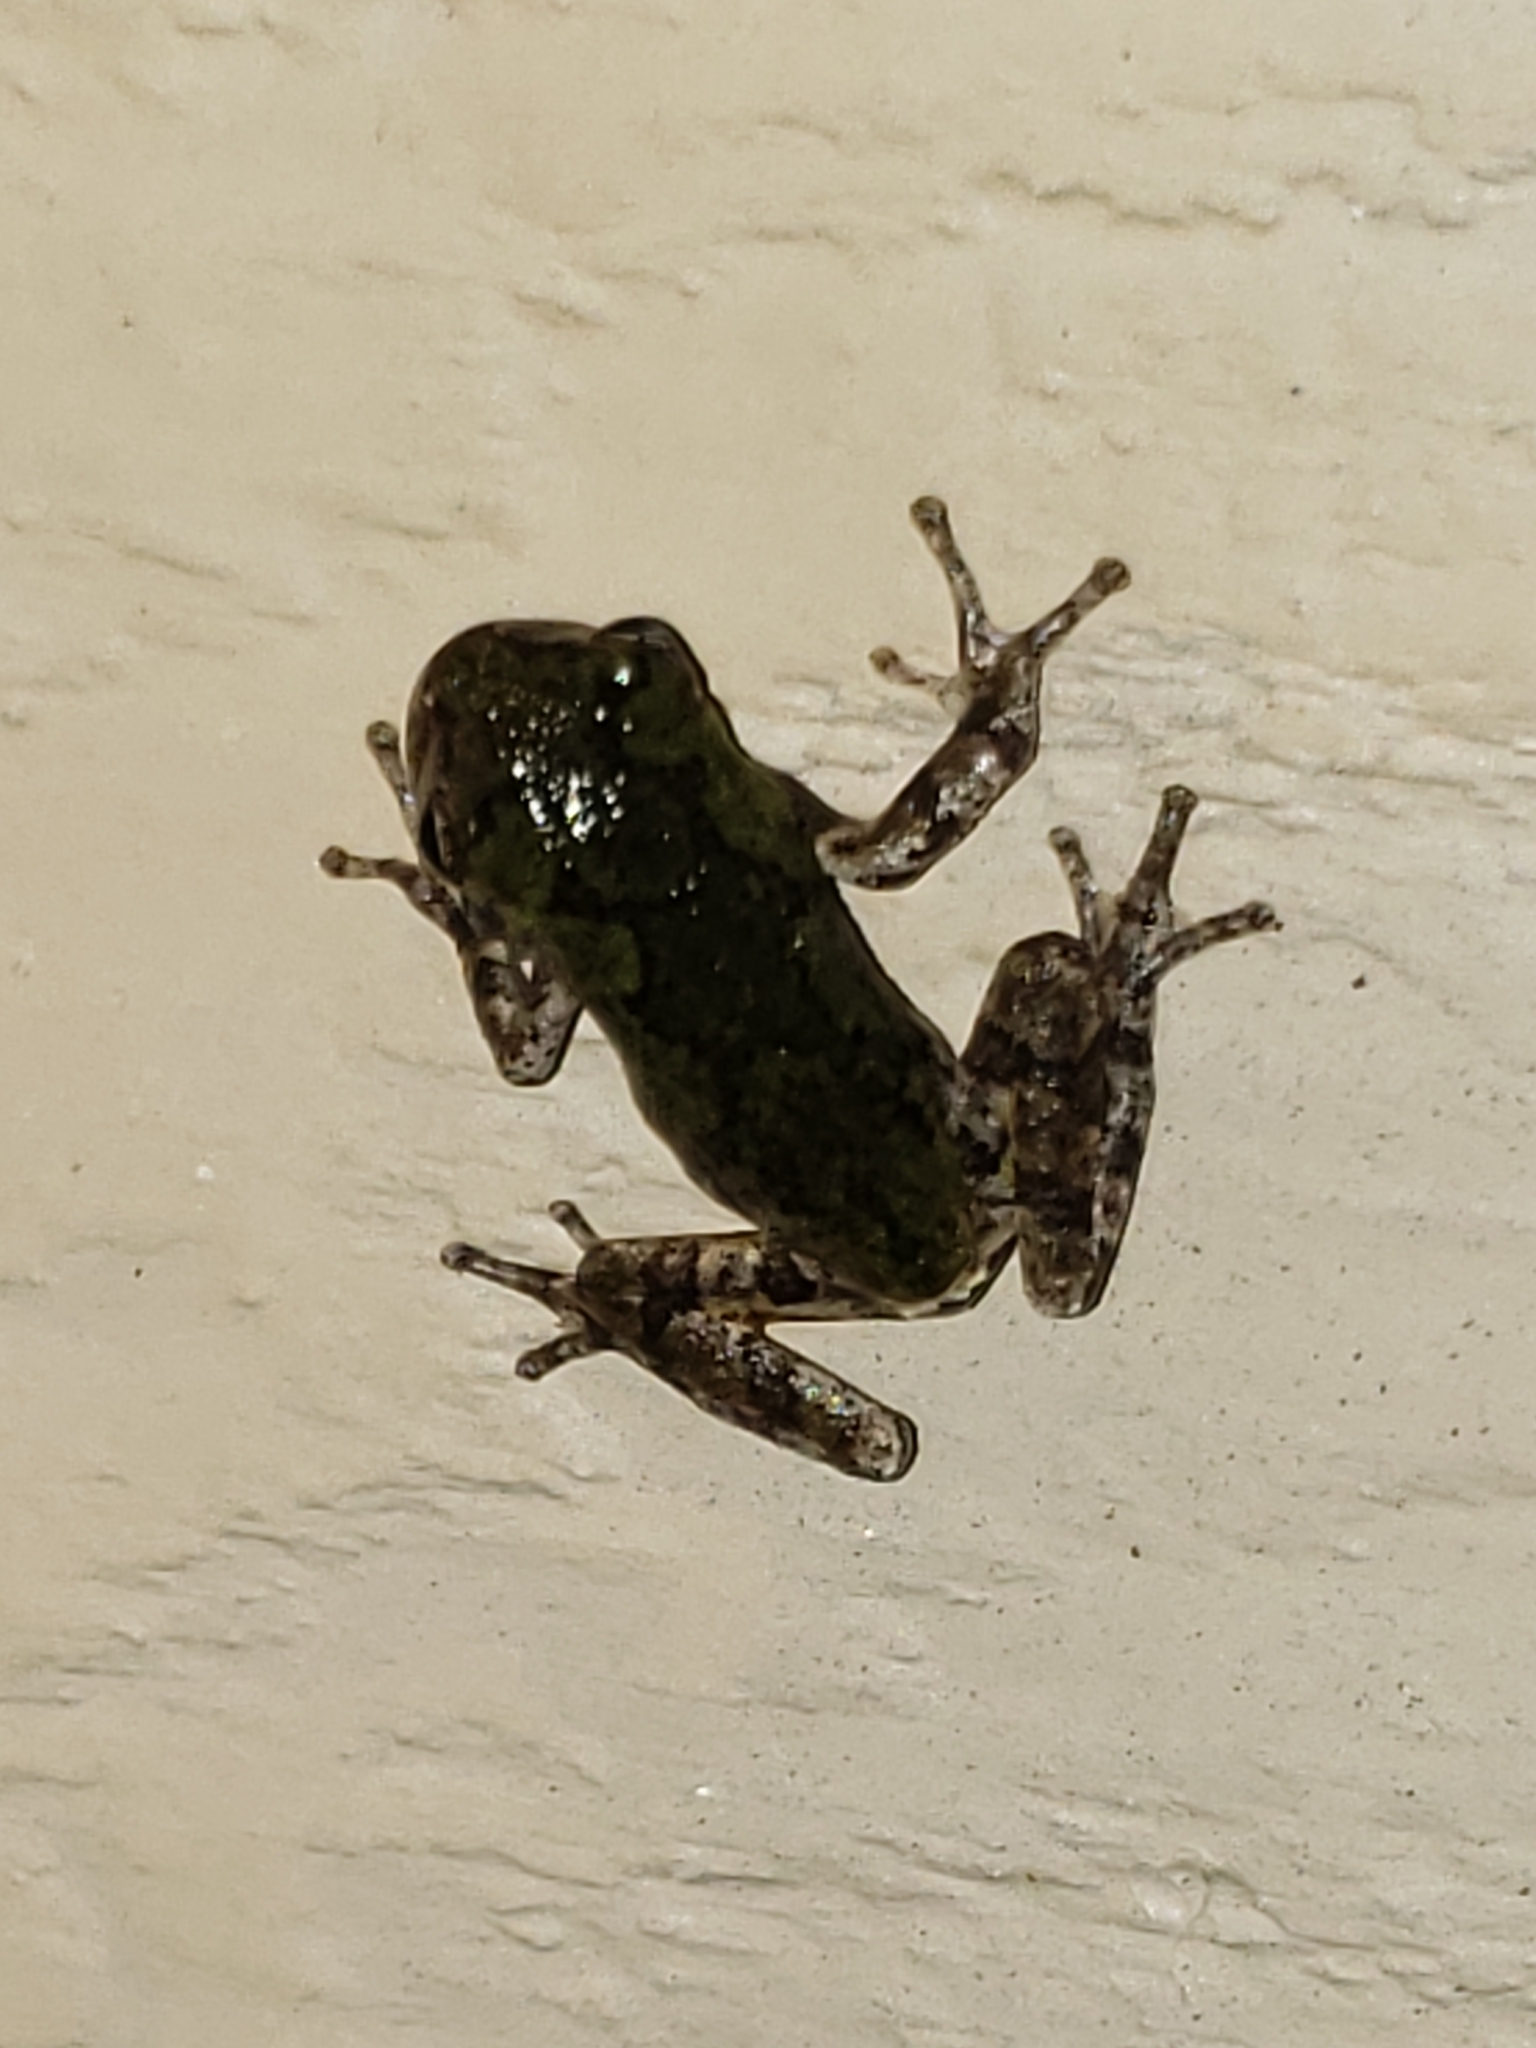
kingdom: Animalia
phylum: Chordata
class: Amphibia
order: Anura
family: Hylidae
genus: Hyla
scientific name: Hyla
